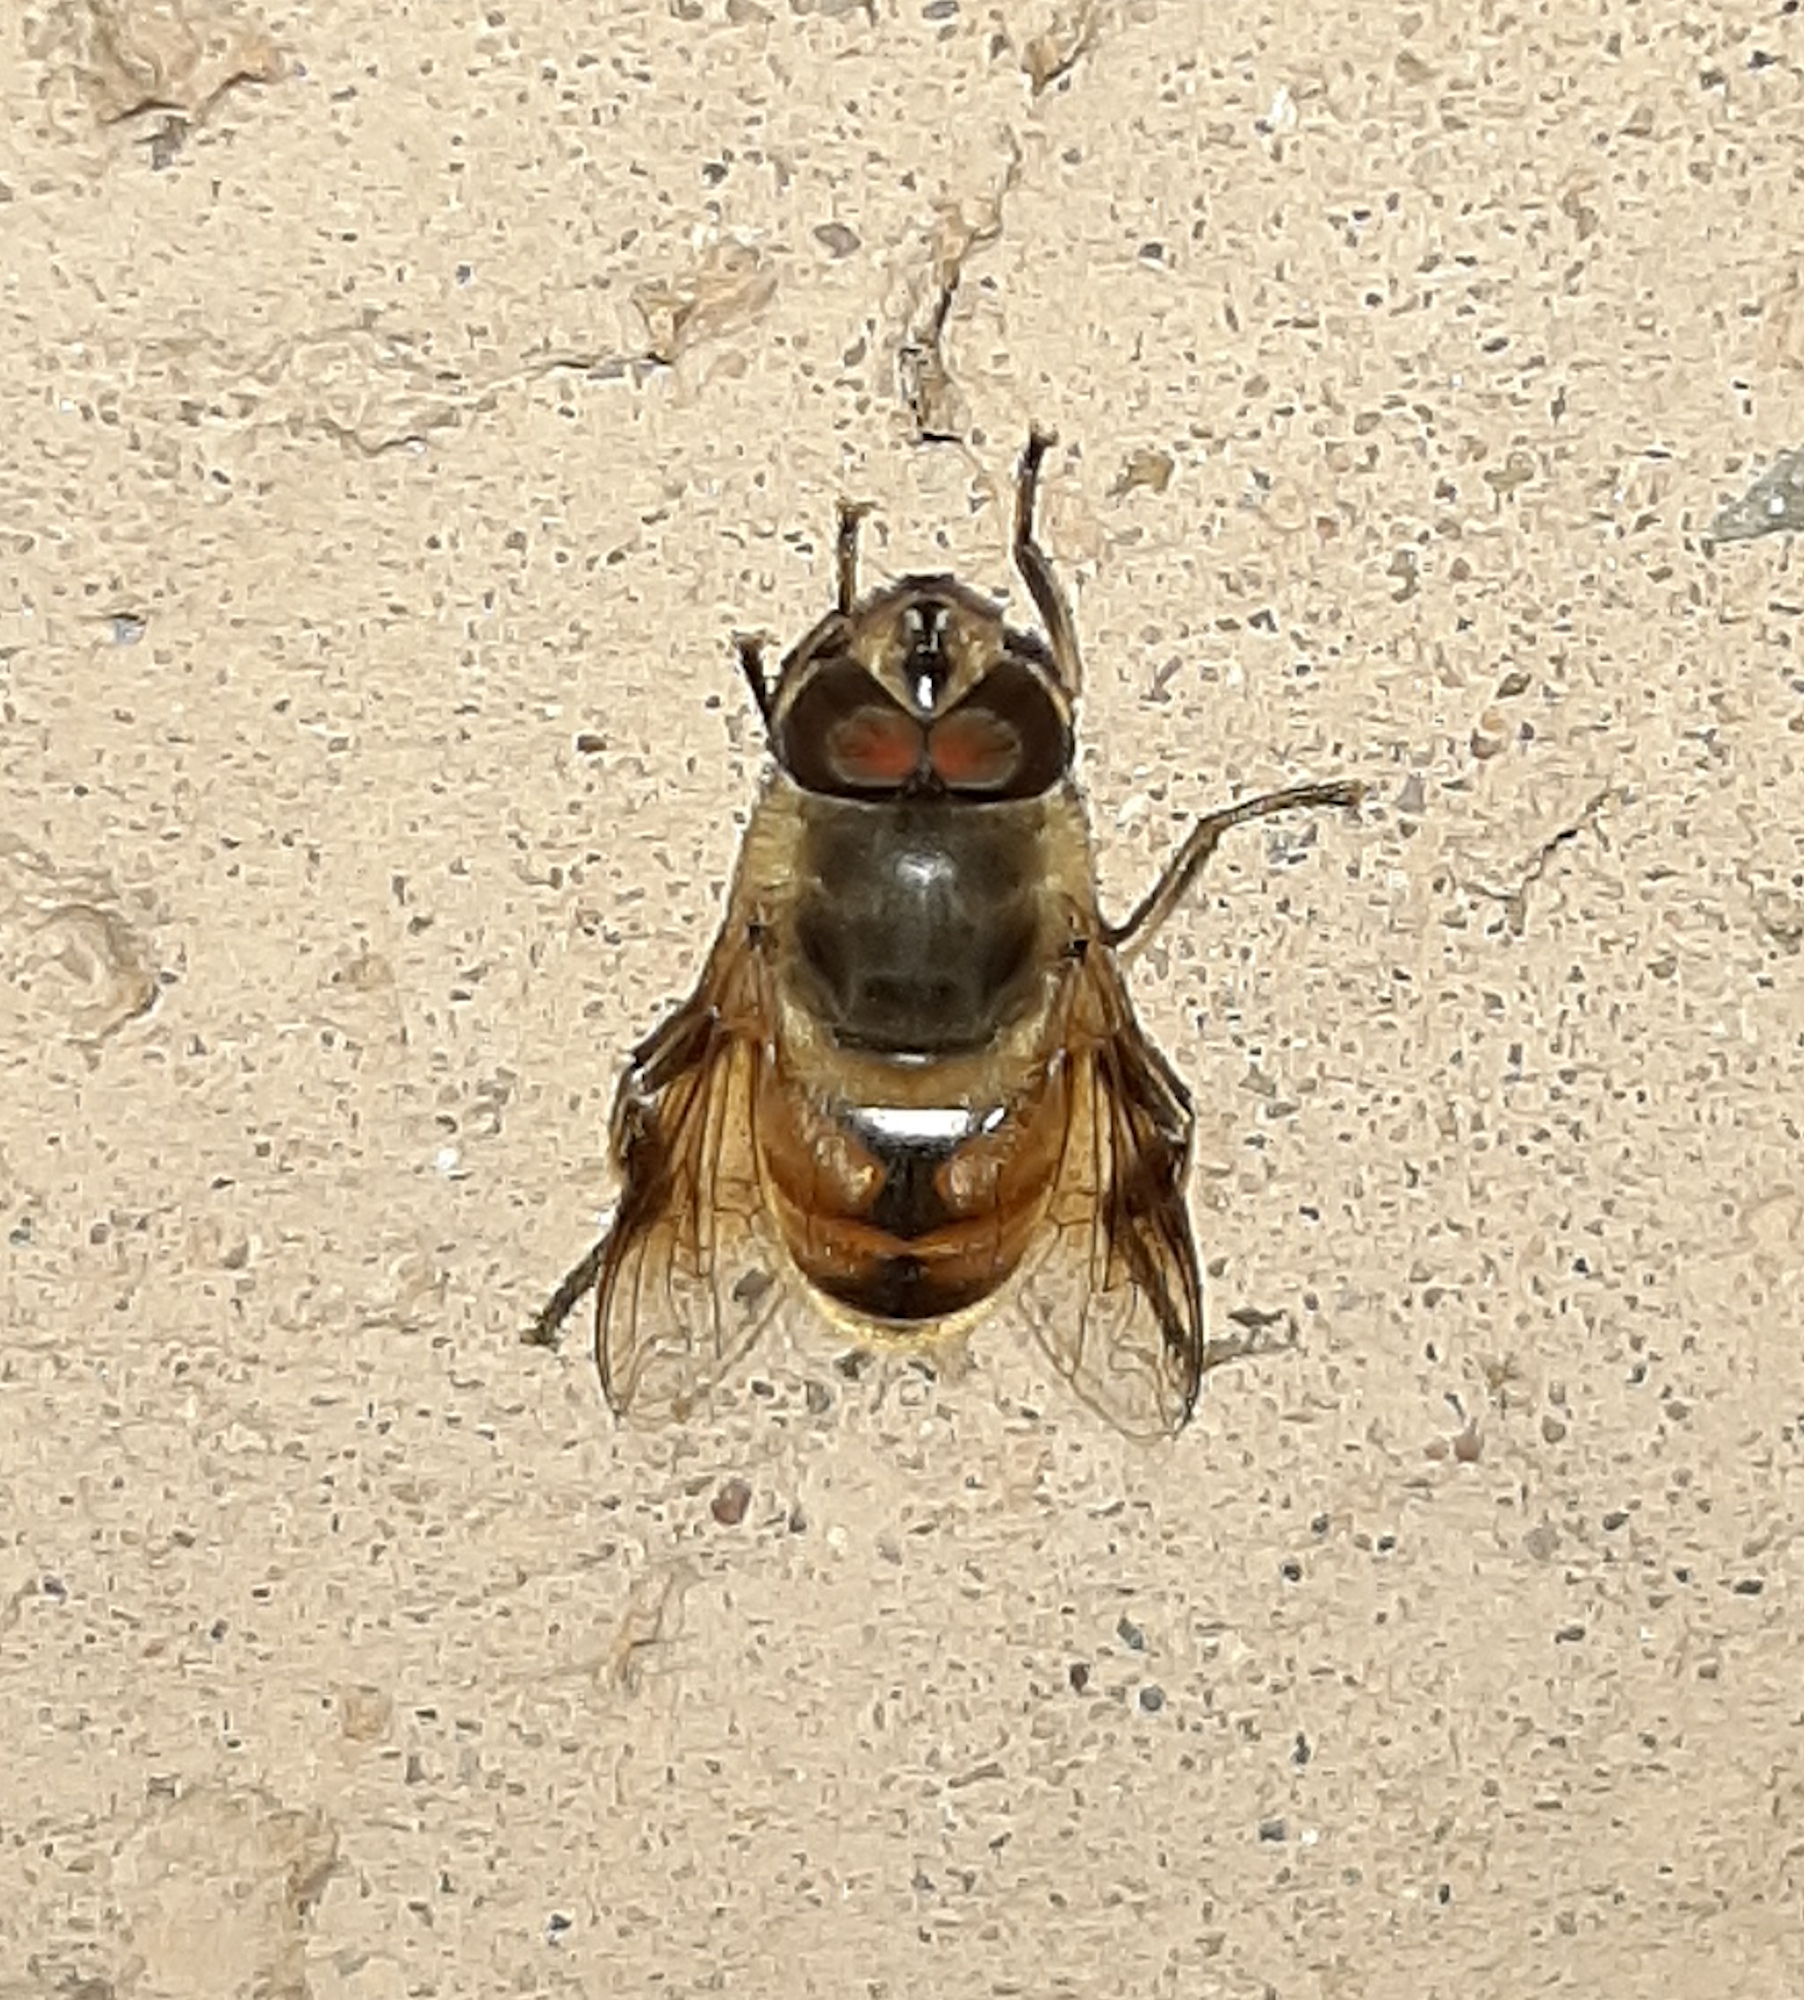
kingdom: Animalia
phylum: Arthropoda
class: Insecta
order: Diptera
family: Syrphidae
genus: Eristalis
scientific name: Eristalis tenax
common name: Drone fly
